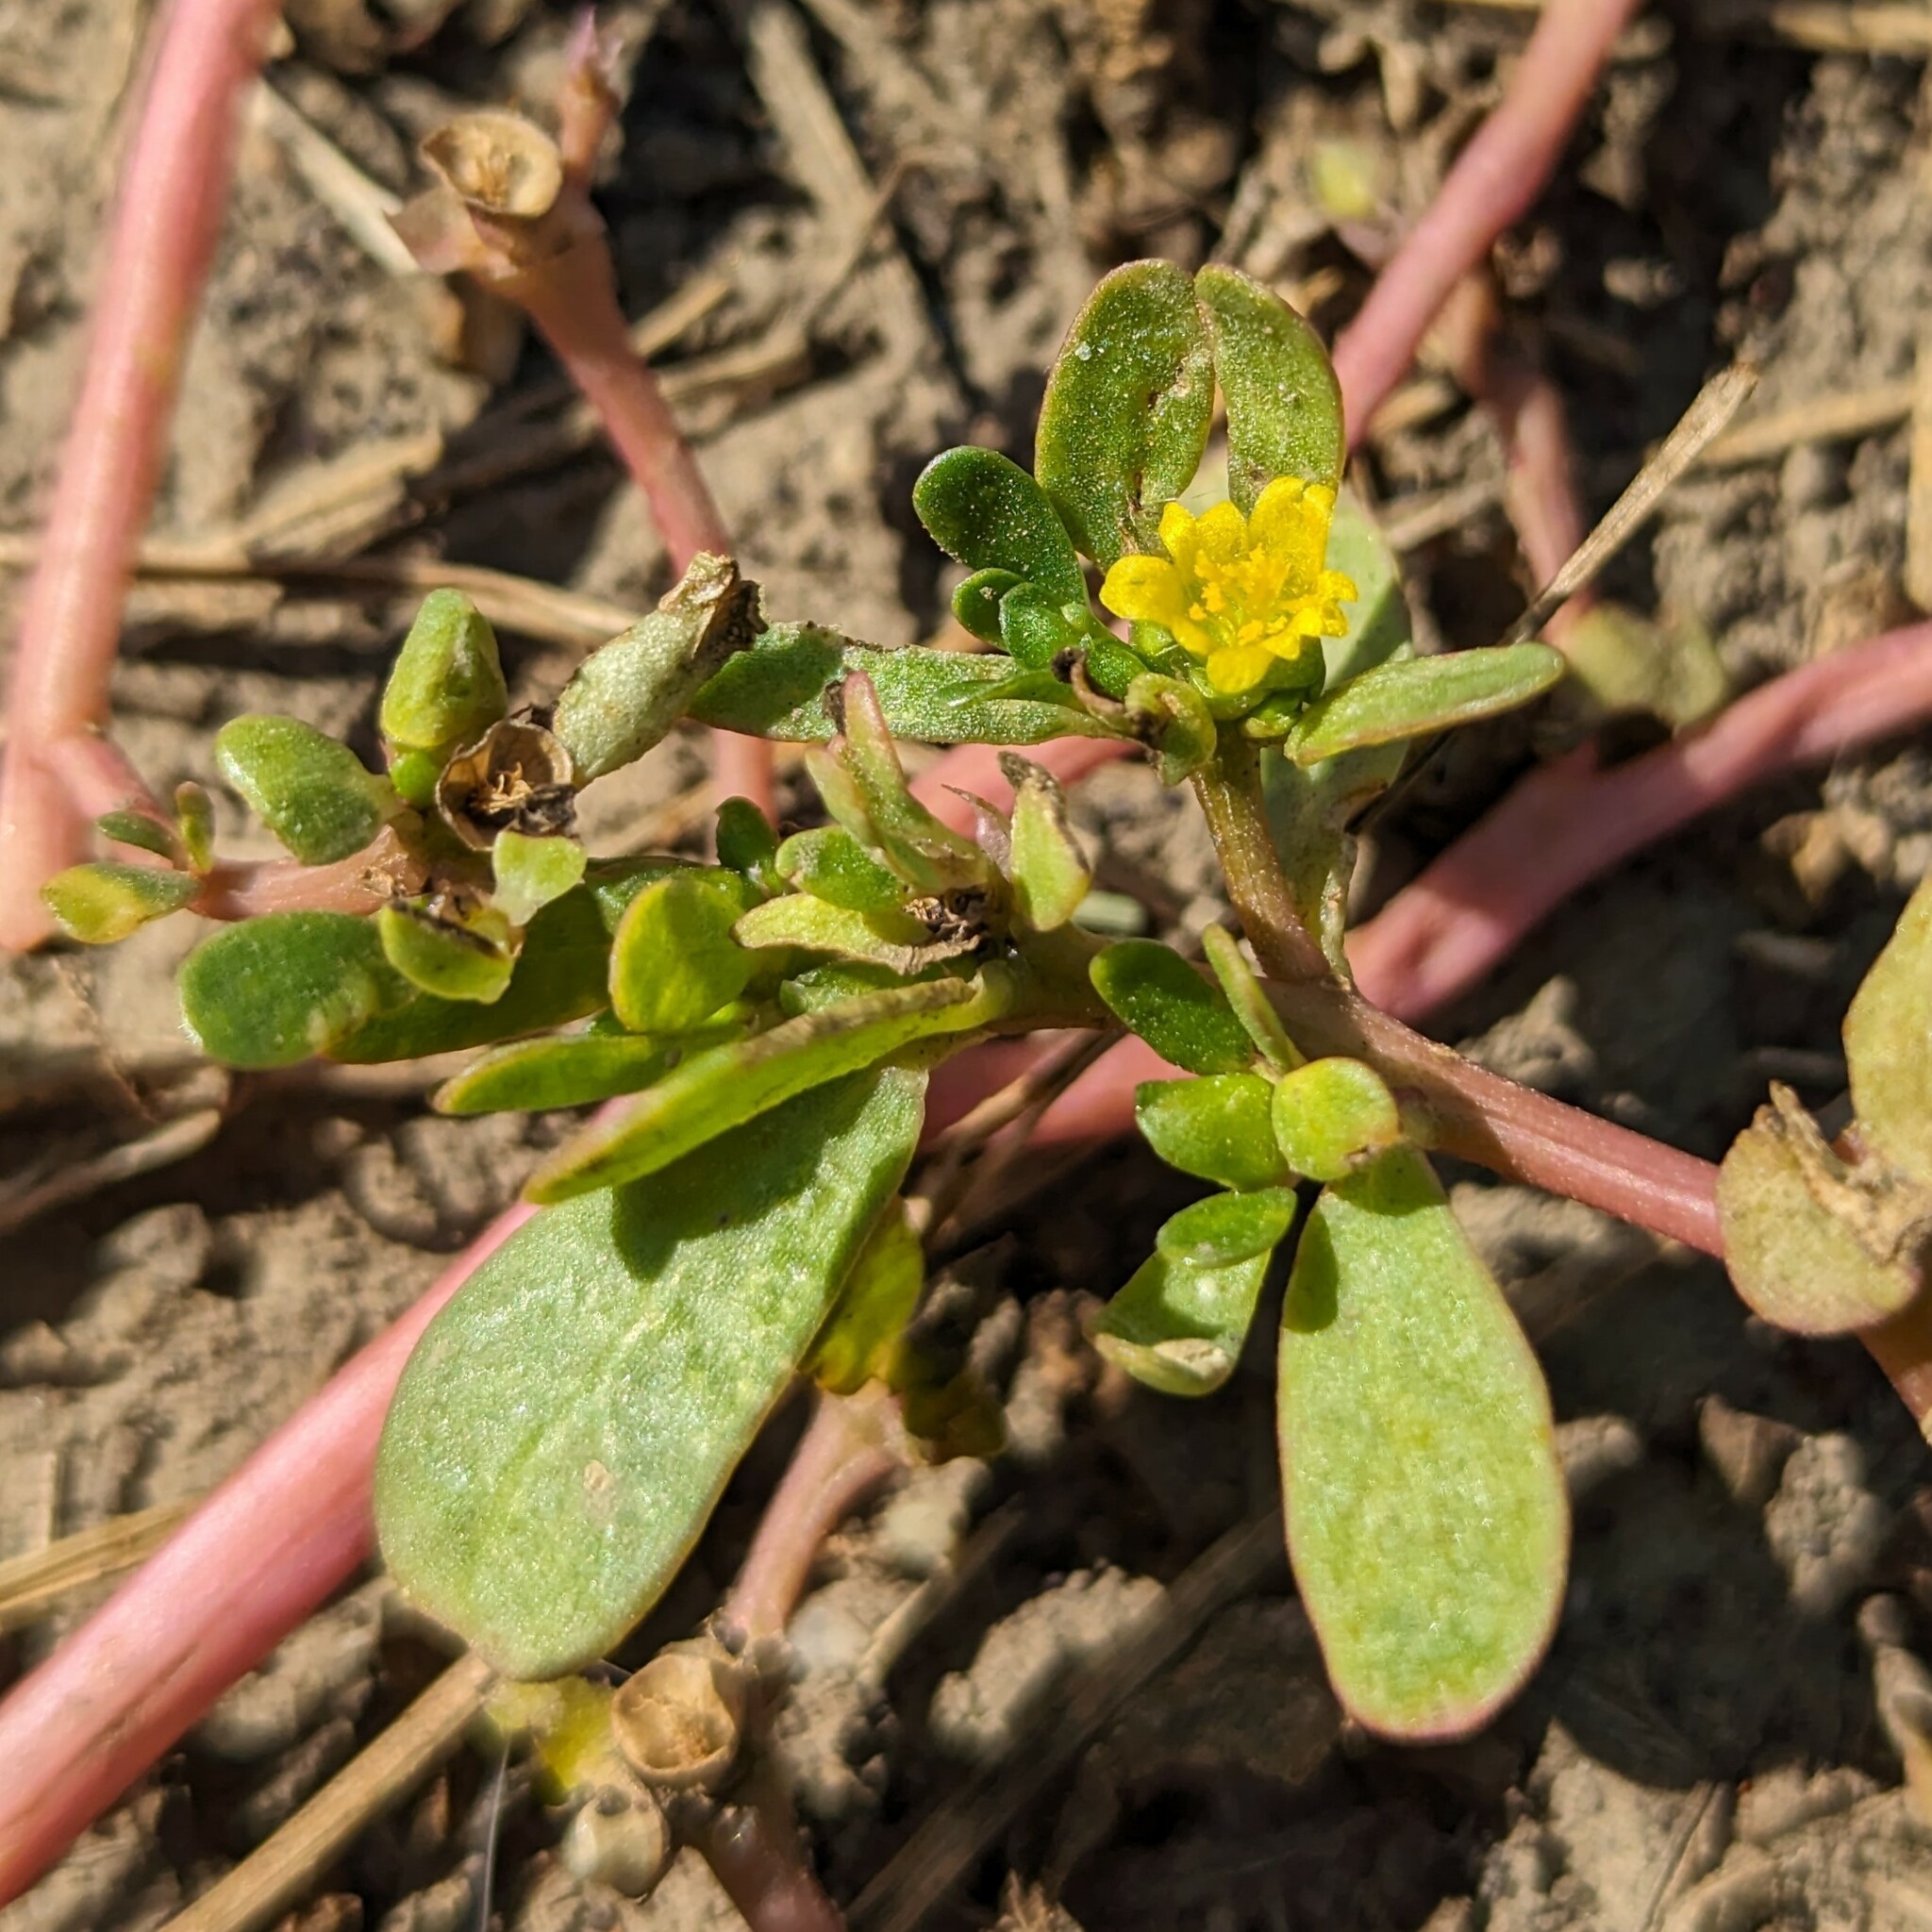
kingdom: Plantae
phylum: Tracheophyta
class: Magnoliopsida
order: Caryophyllales
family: Portulacaceae
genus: Portulaca
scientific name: Portulaca oleracea
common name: Common purslane
